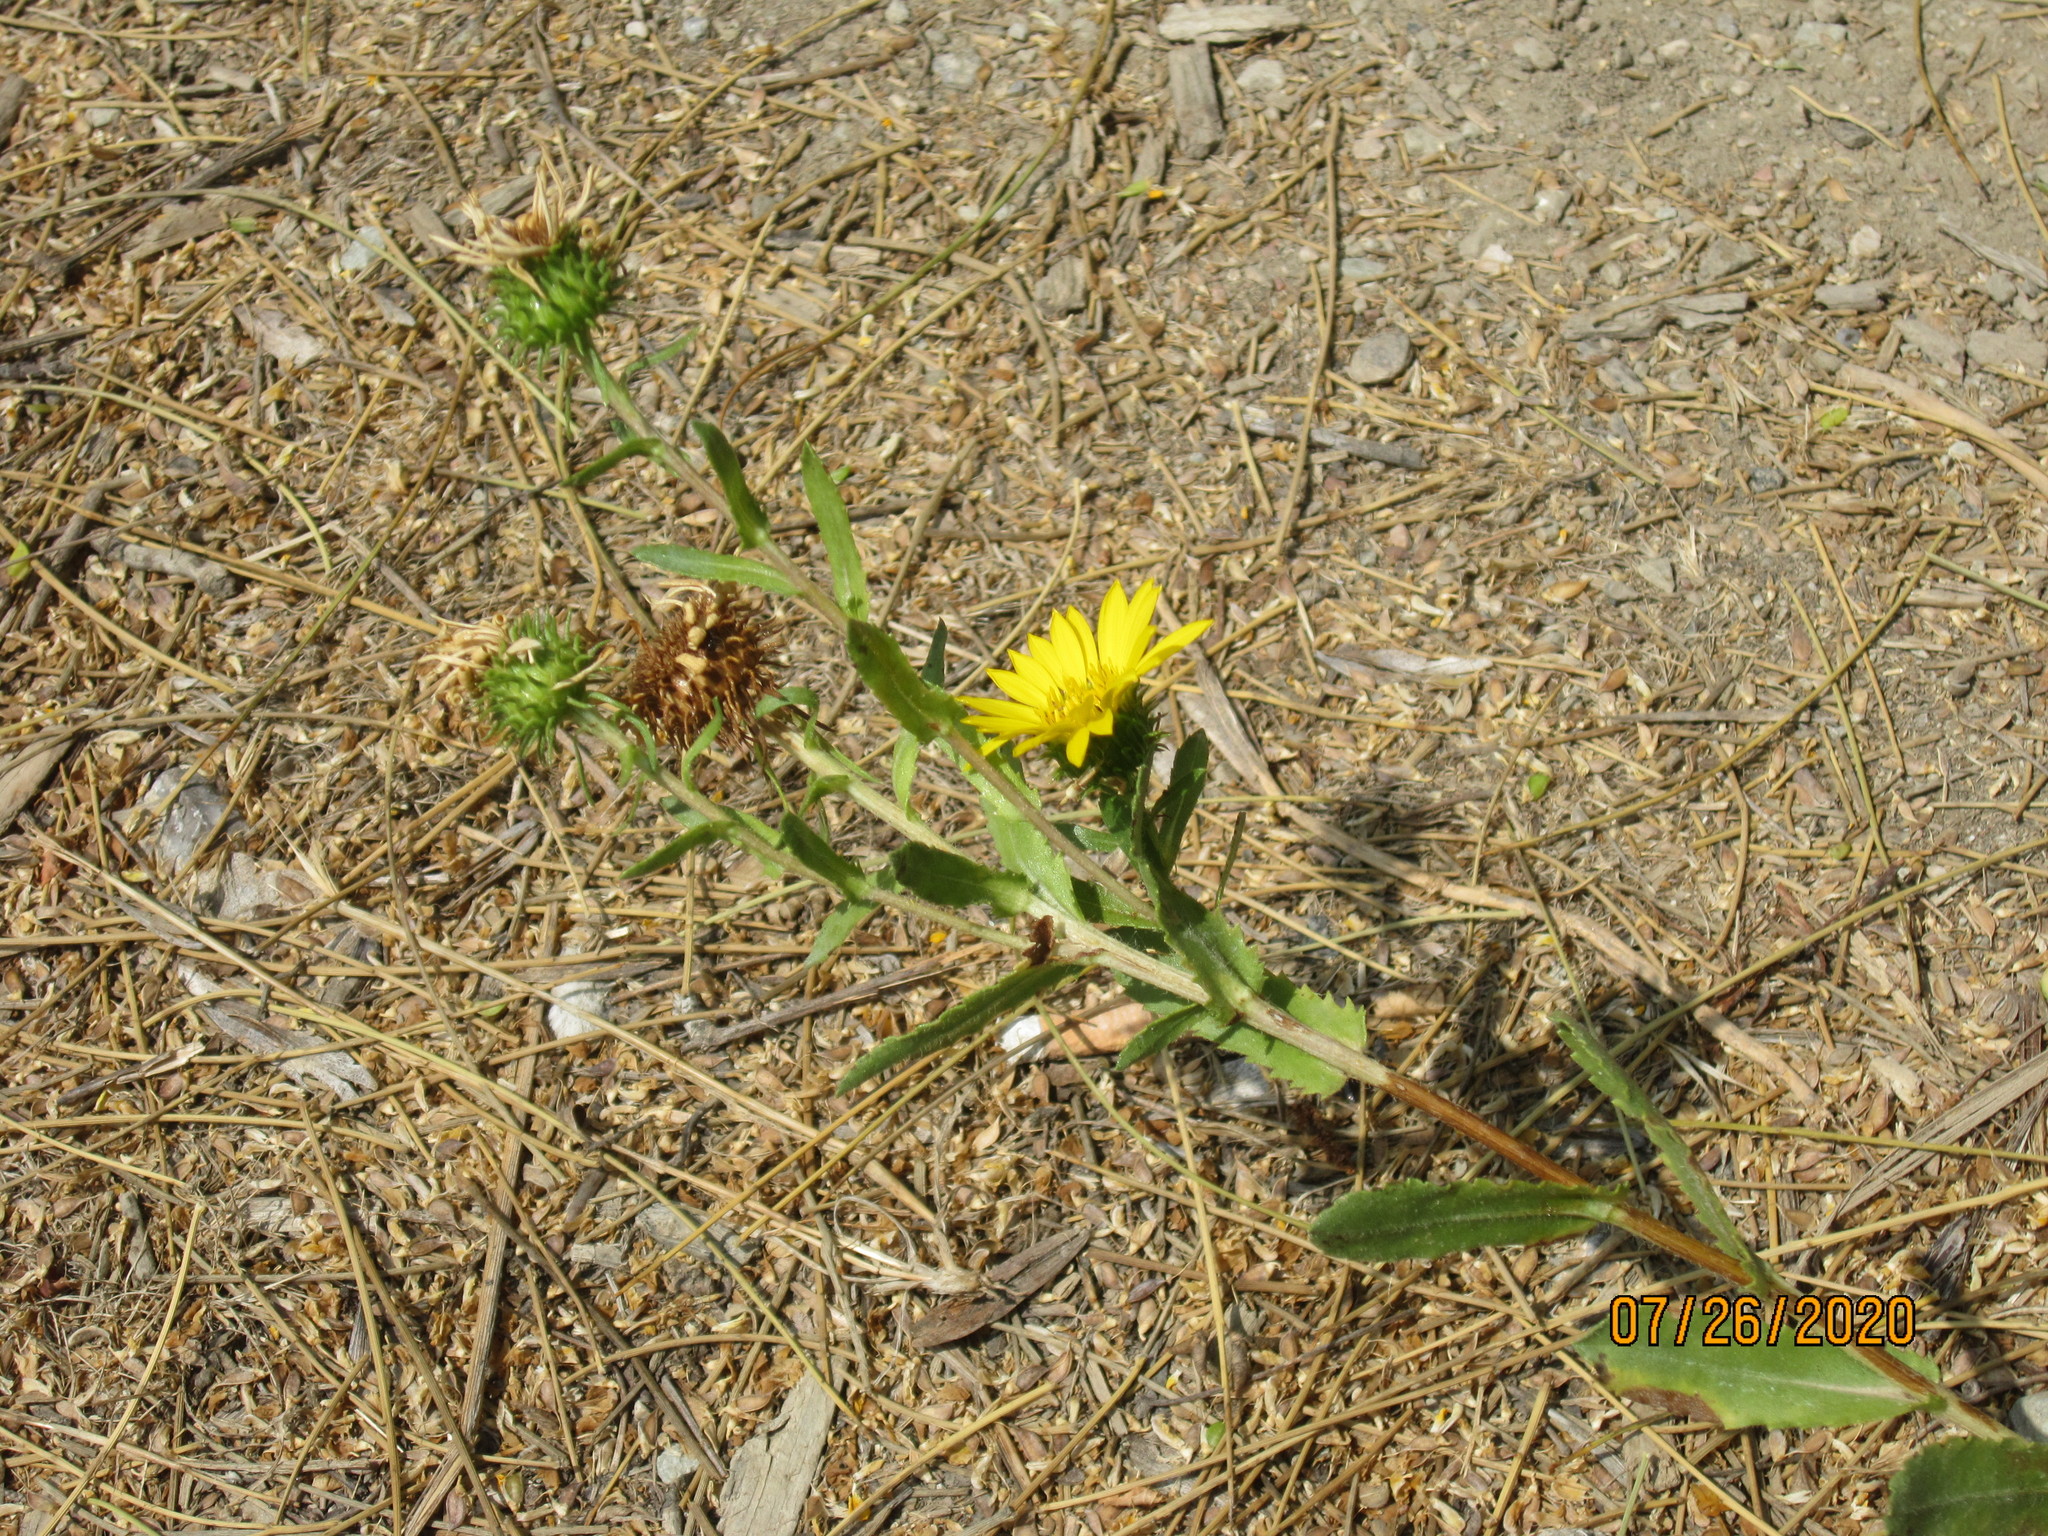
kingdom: Plantae
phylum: Tracheophyta
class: Magnoliopsida
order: Asterales
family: Asteraceae
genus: Grindelia
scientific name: Grindelia squarrosa
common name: Curly-cup gumweed
